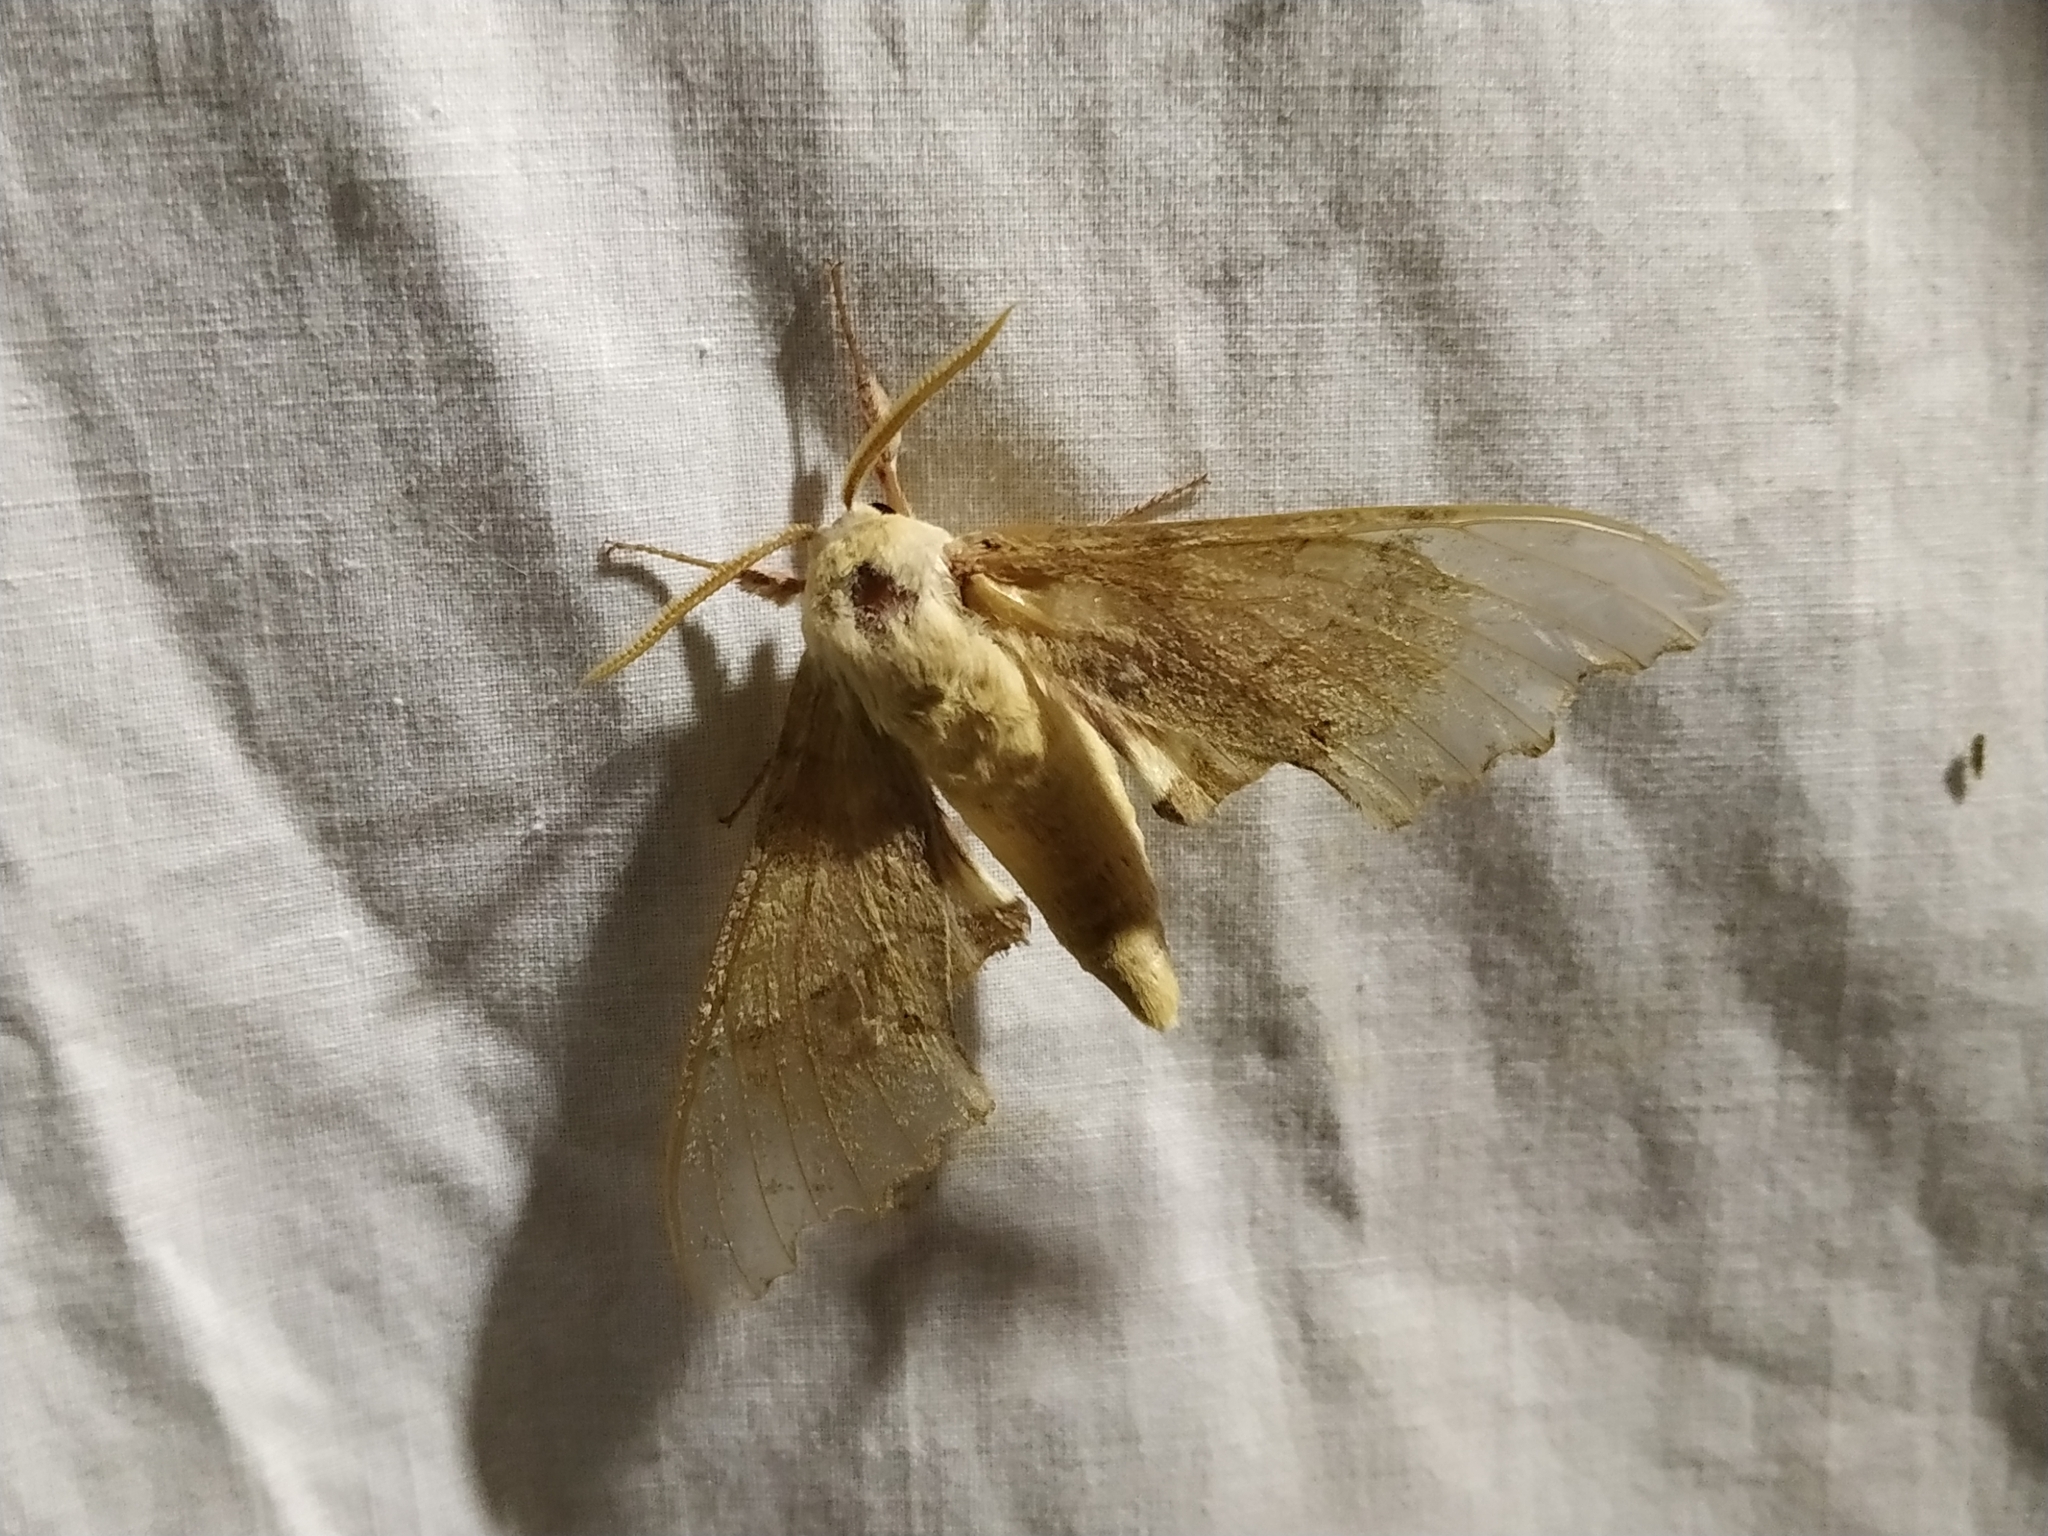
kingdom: Animalia
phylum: Arthropoda
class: Insecta
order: Lepidoptera
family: Sphingidae
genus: Marumba
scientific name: Marumba quercus
